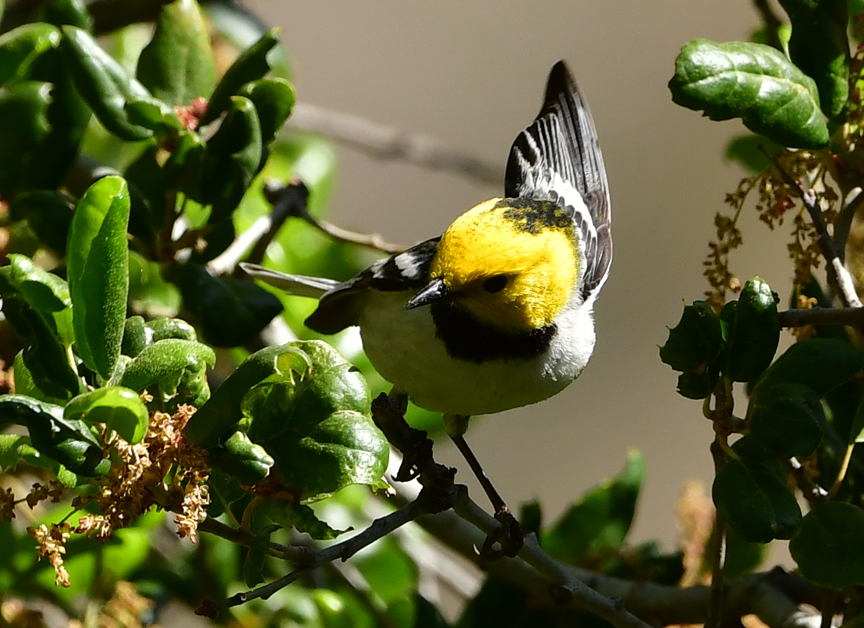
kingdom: Animalia
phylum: Chordata
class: Aves
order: Passeriformes
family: Parulidae
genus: Setophaga
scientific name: Setophaga occidentalis
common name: Hermit warbler
